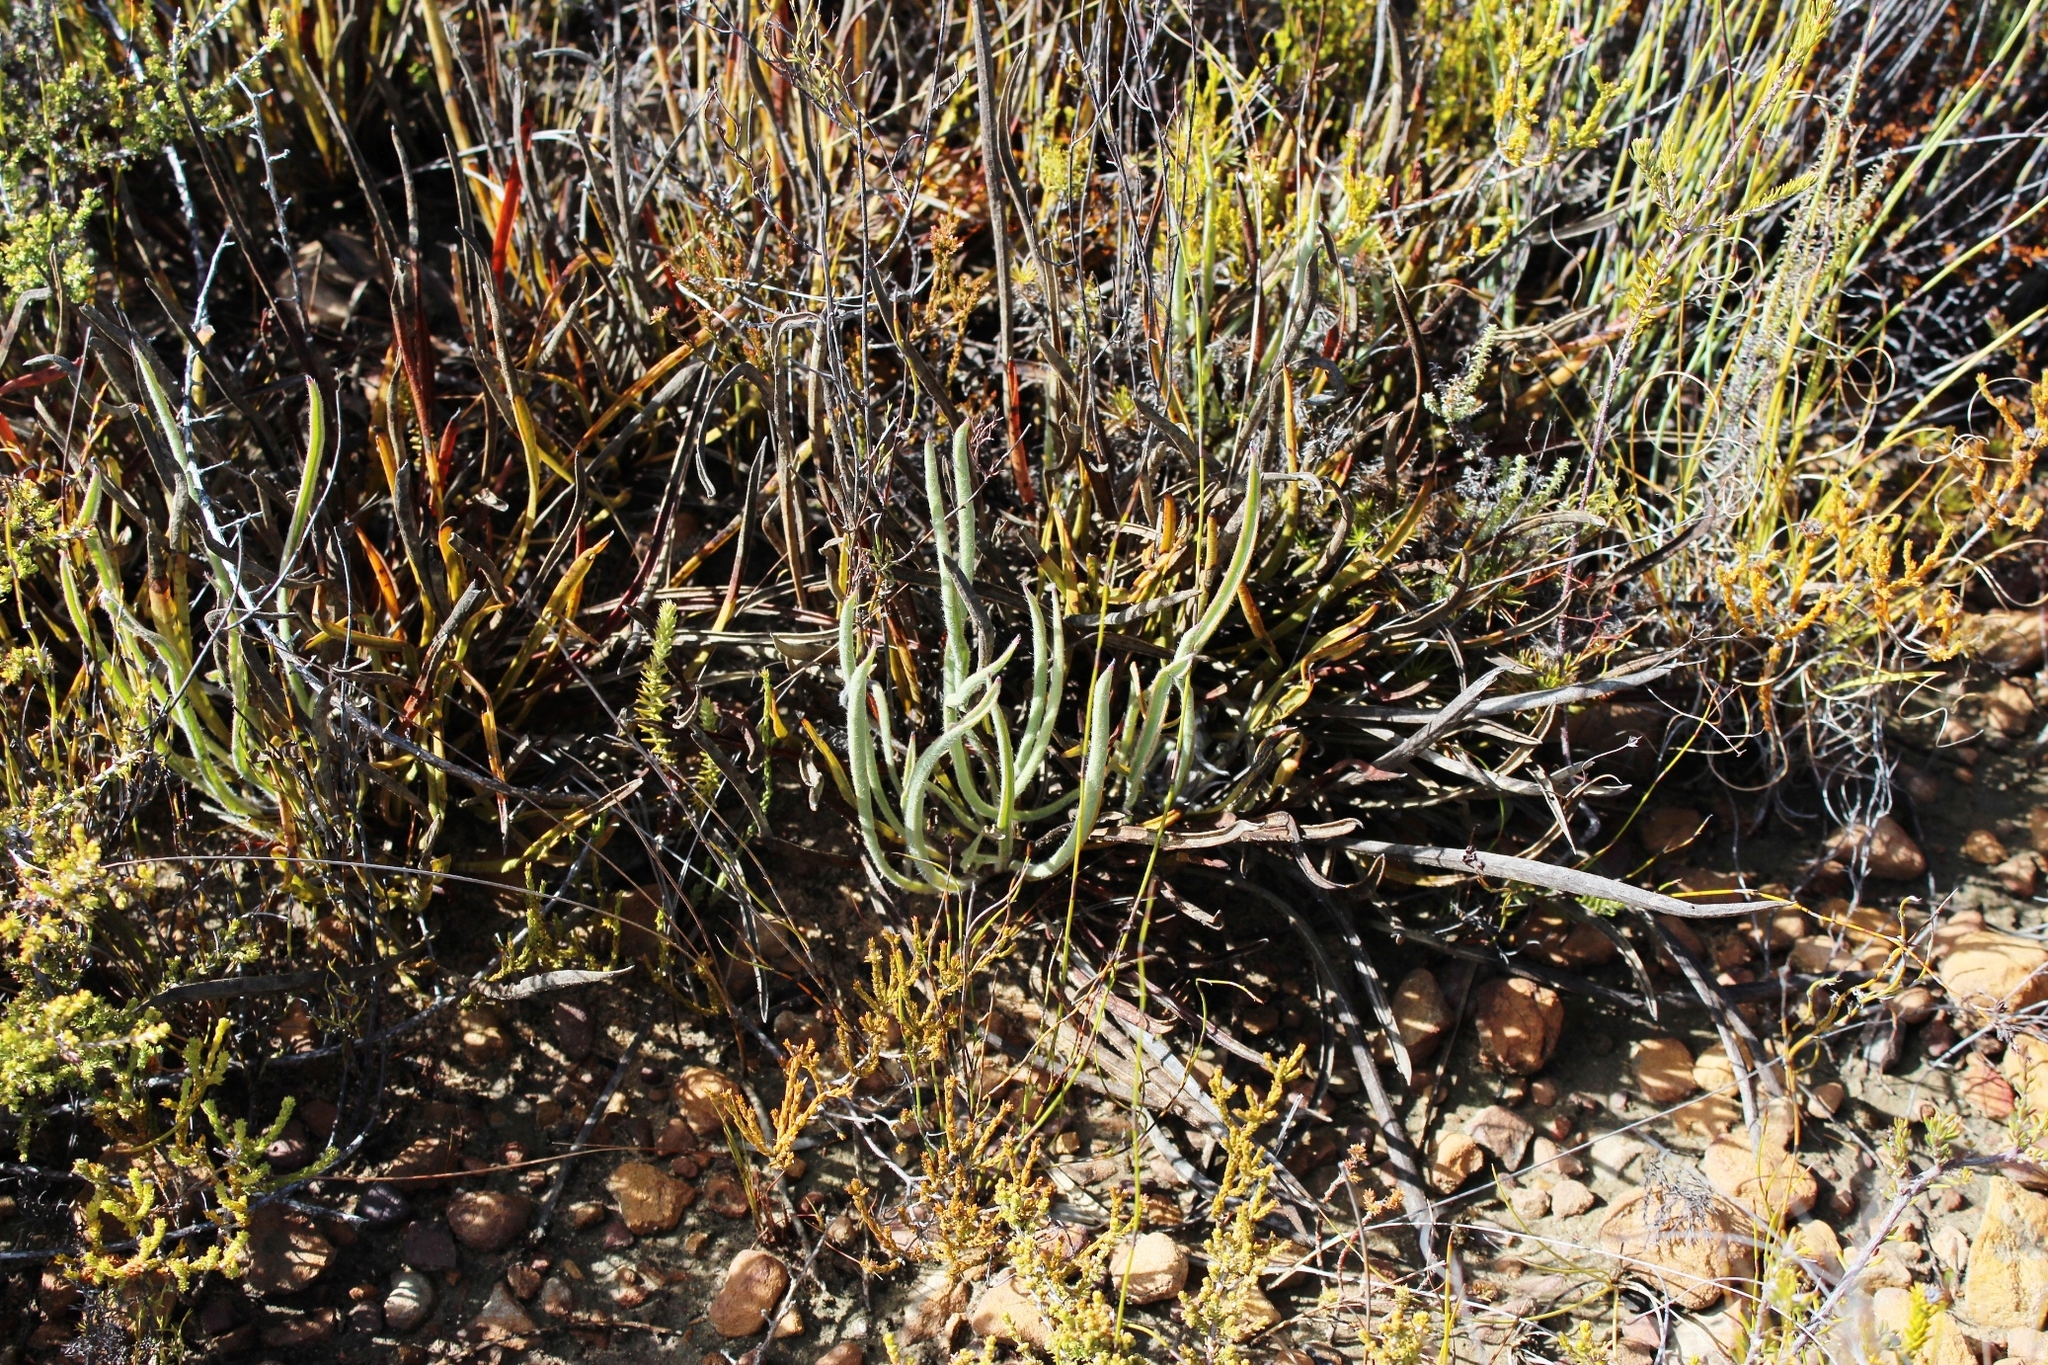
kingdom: Plantae
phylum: Tracheophyta
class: Magnoliopsida
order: Proteales
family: Proteaceae
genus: Protea
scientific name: Protea piscina
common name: Visgat sugarbush
